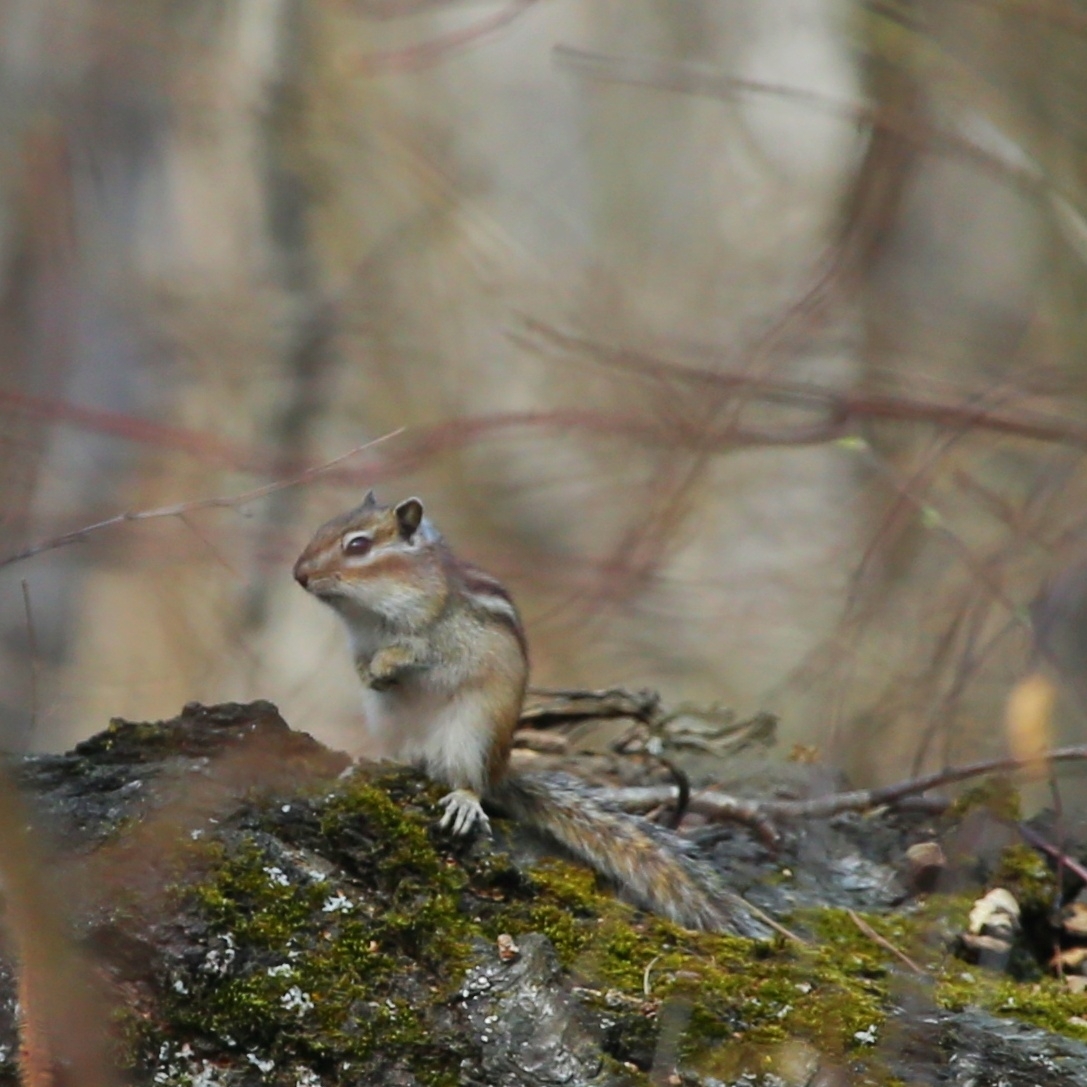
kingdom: Animalia
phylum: Chordata
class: Mammalia
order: Rodentia
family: Sciuridae
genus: Tamias
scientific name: Tamias sibiricus
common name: Siberian chipmunk
